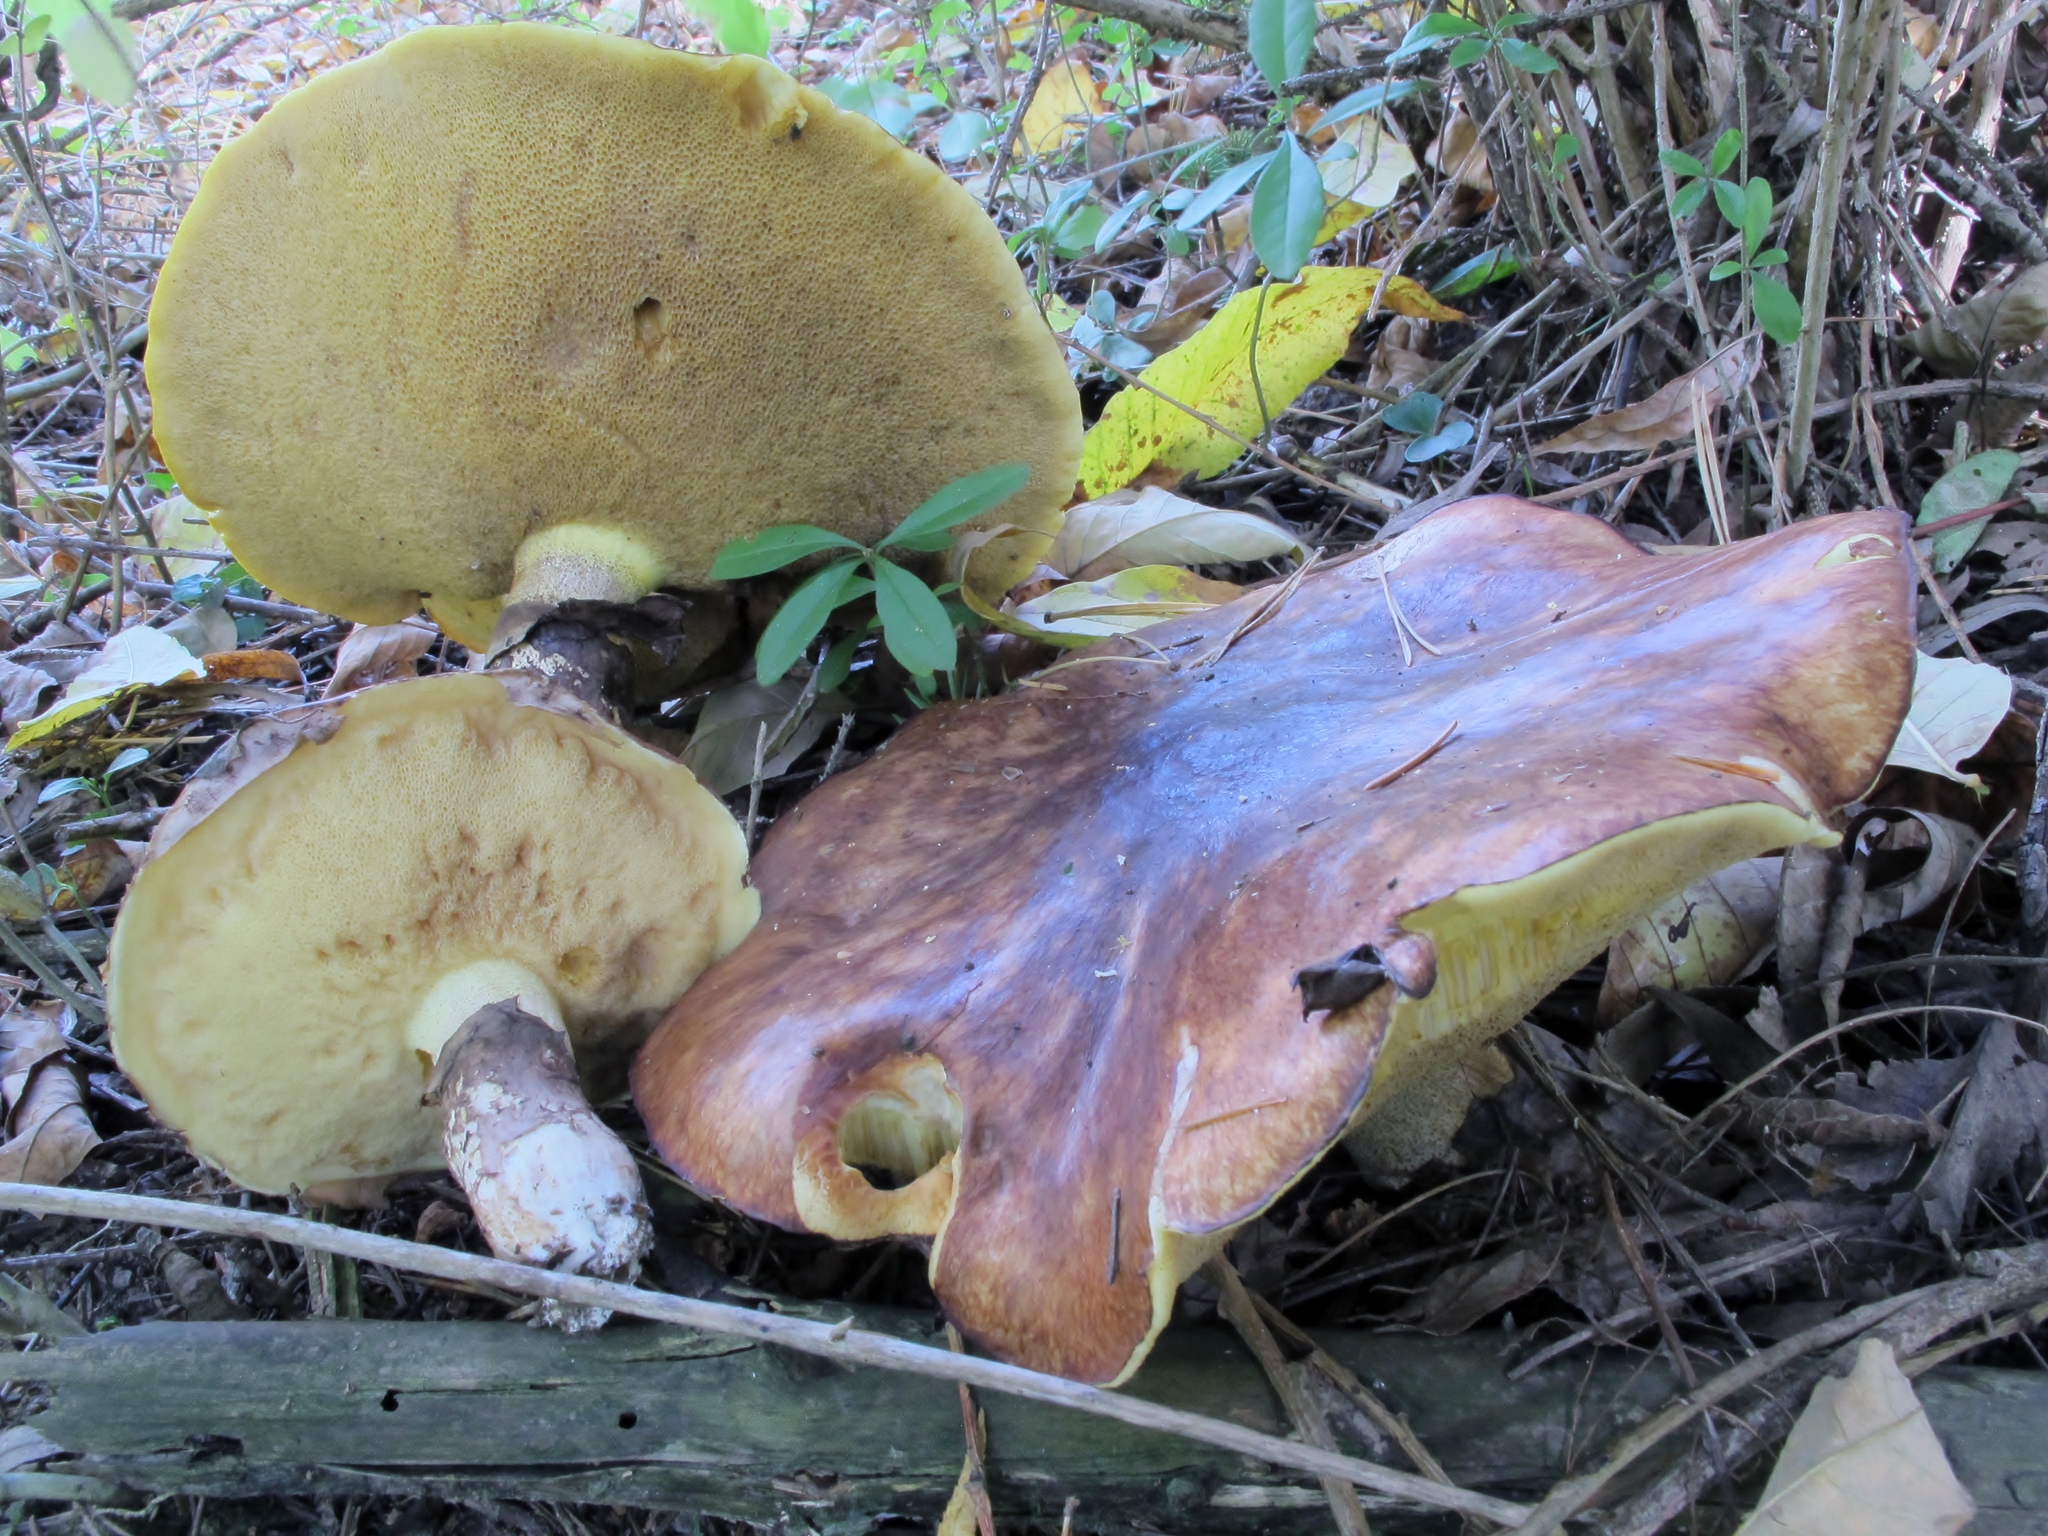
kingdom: Fungi
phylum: Basidiomycota
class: Agaricomycetes
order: Boletales
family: Suillaceae
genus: Suillus
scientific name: Suillus luteus
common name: Slippery jack
